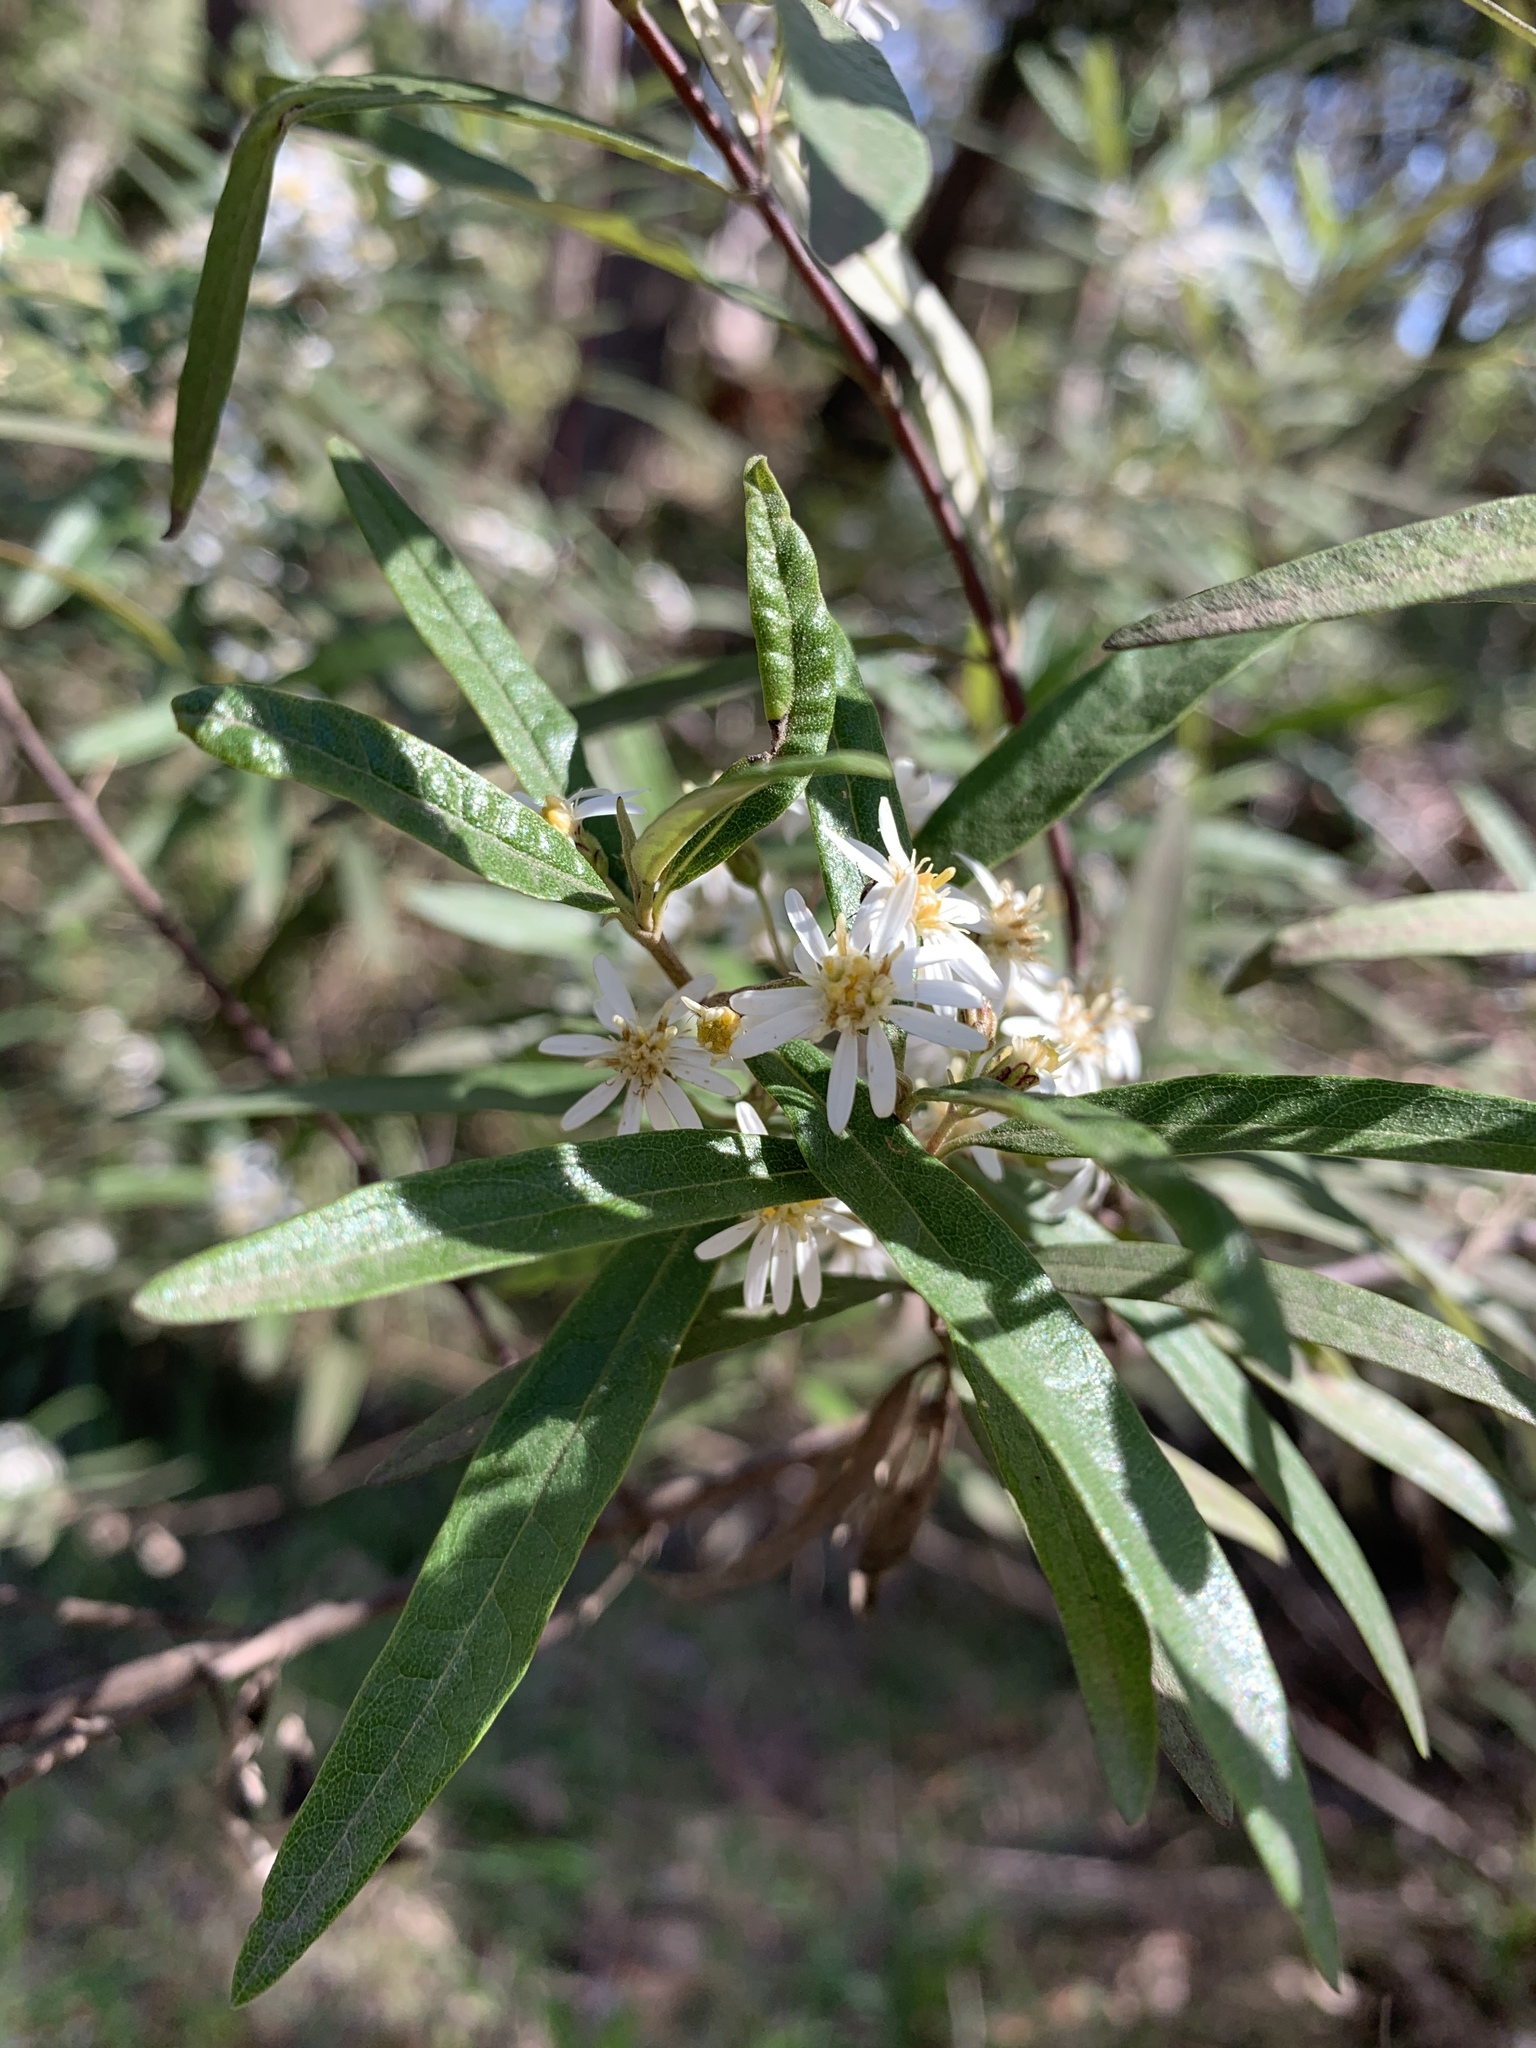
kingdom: Plantae
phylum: Tracheophyta
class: Magnoliopsida
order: Asterales
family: Asteraceae
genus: Olearia
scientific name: Olearia viscidula
